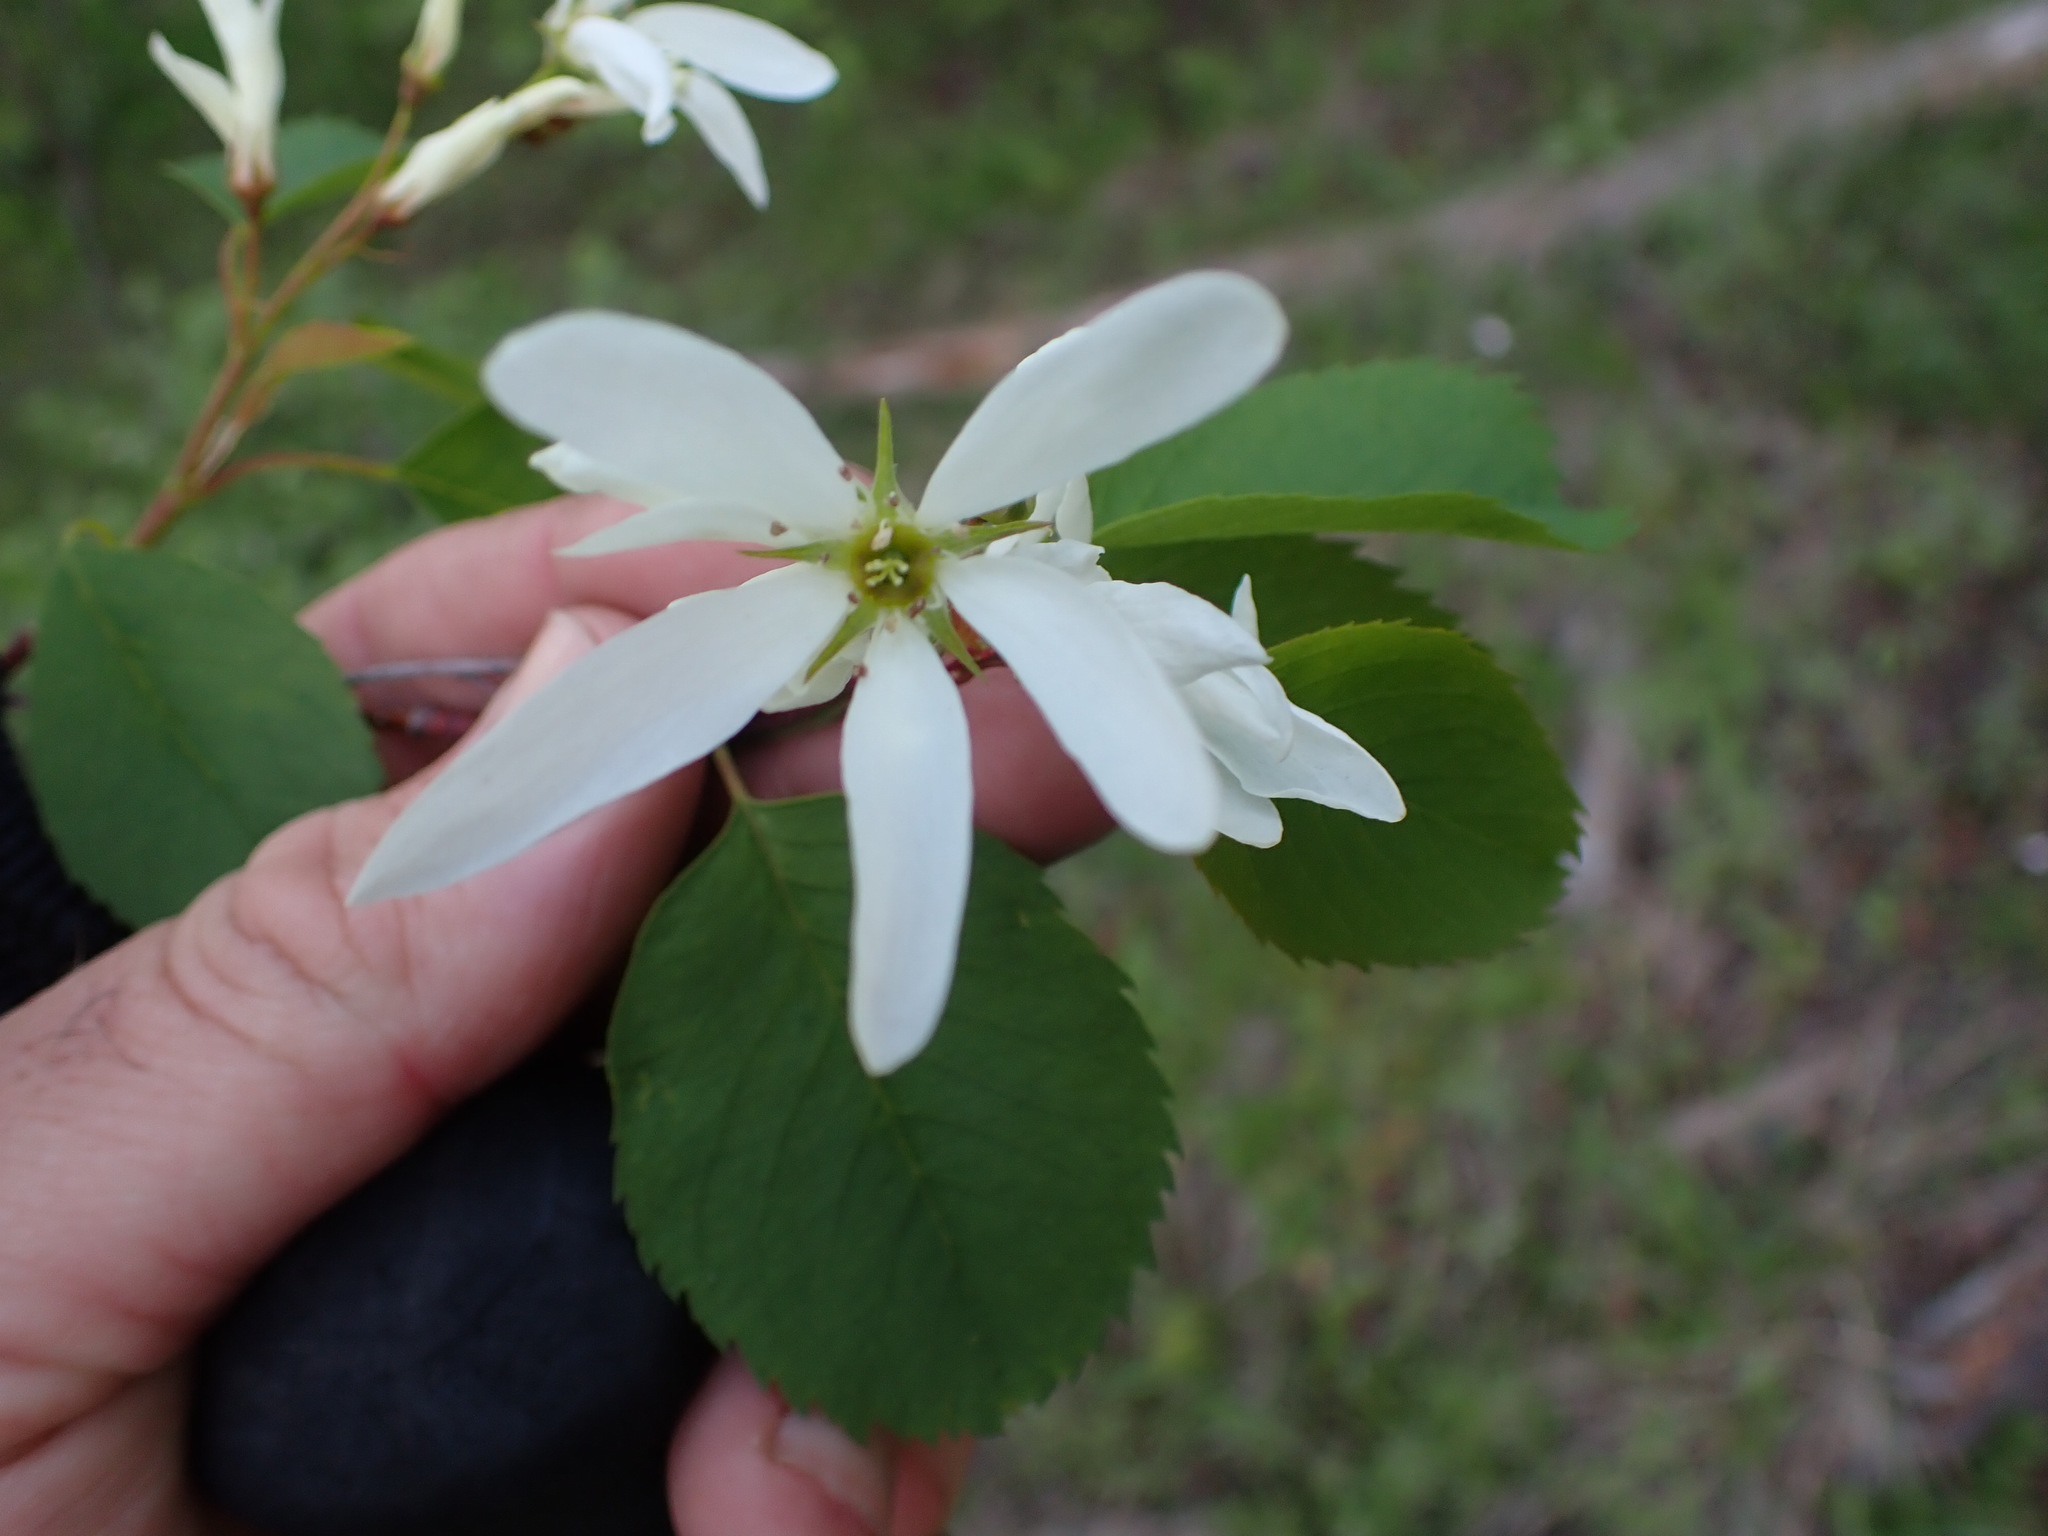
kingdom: Plantae
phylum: Tracheophyta
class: Magnoliopsida
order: Rosales
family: Rosaceae
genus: Amelanchier
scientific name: Amelanchier alnifolia
